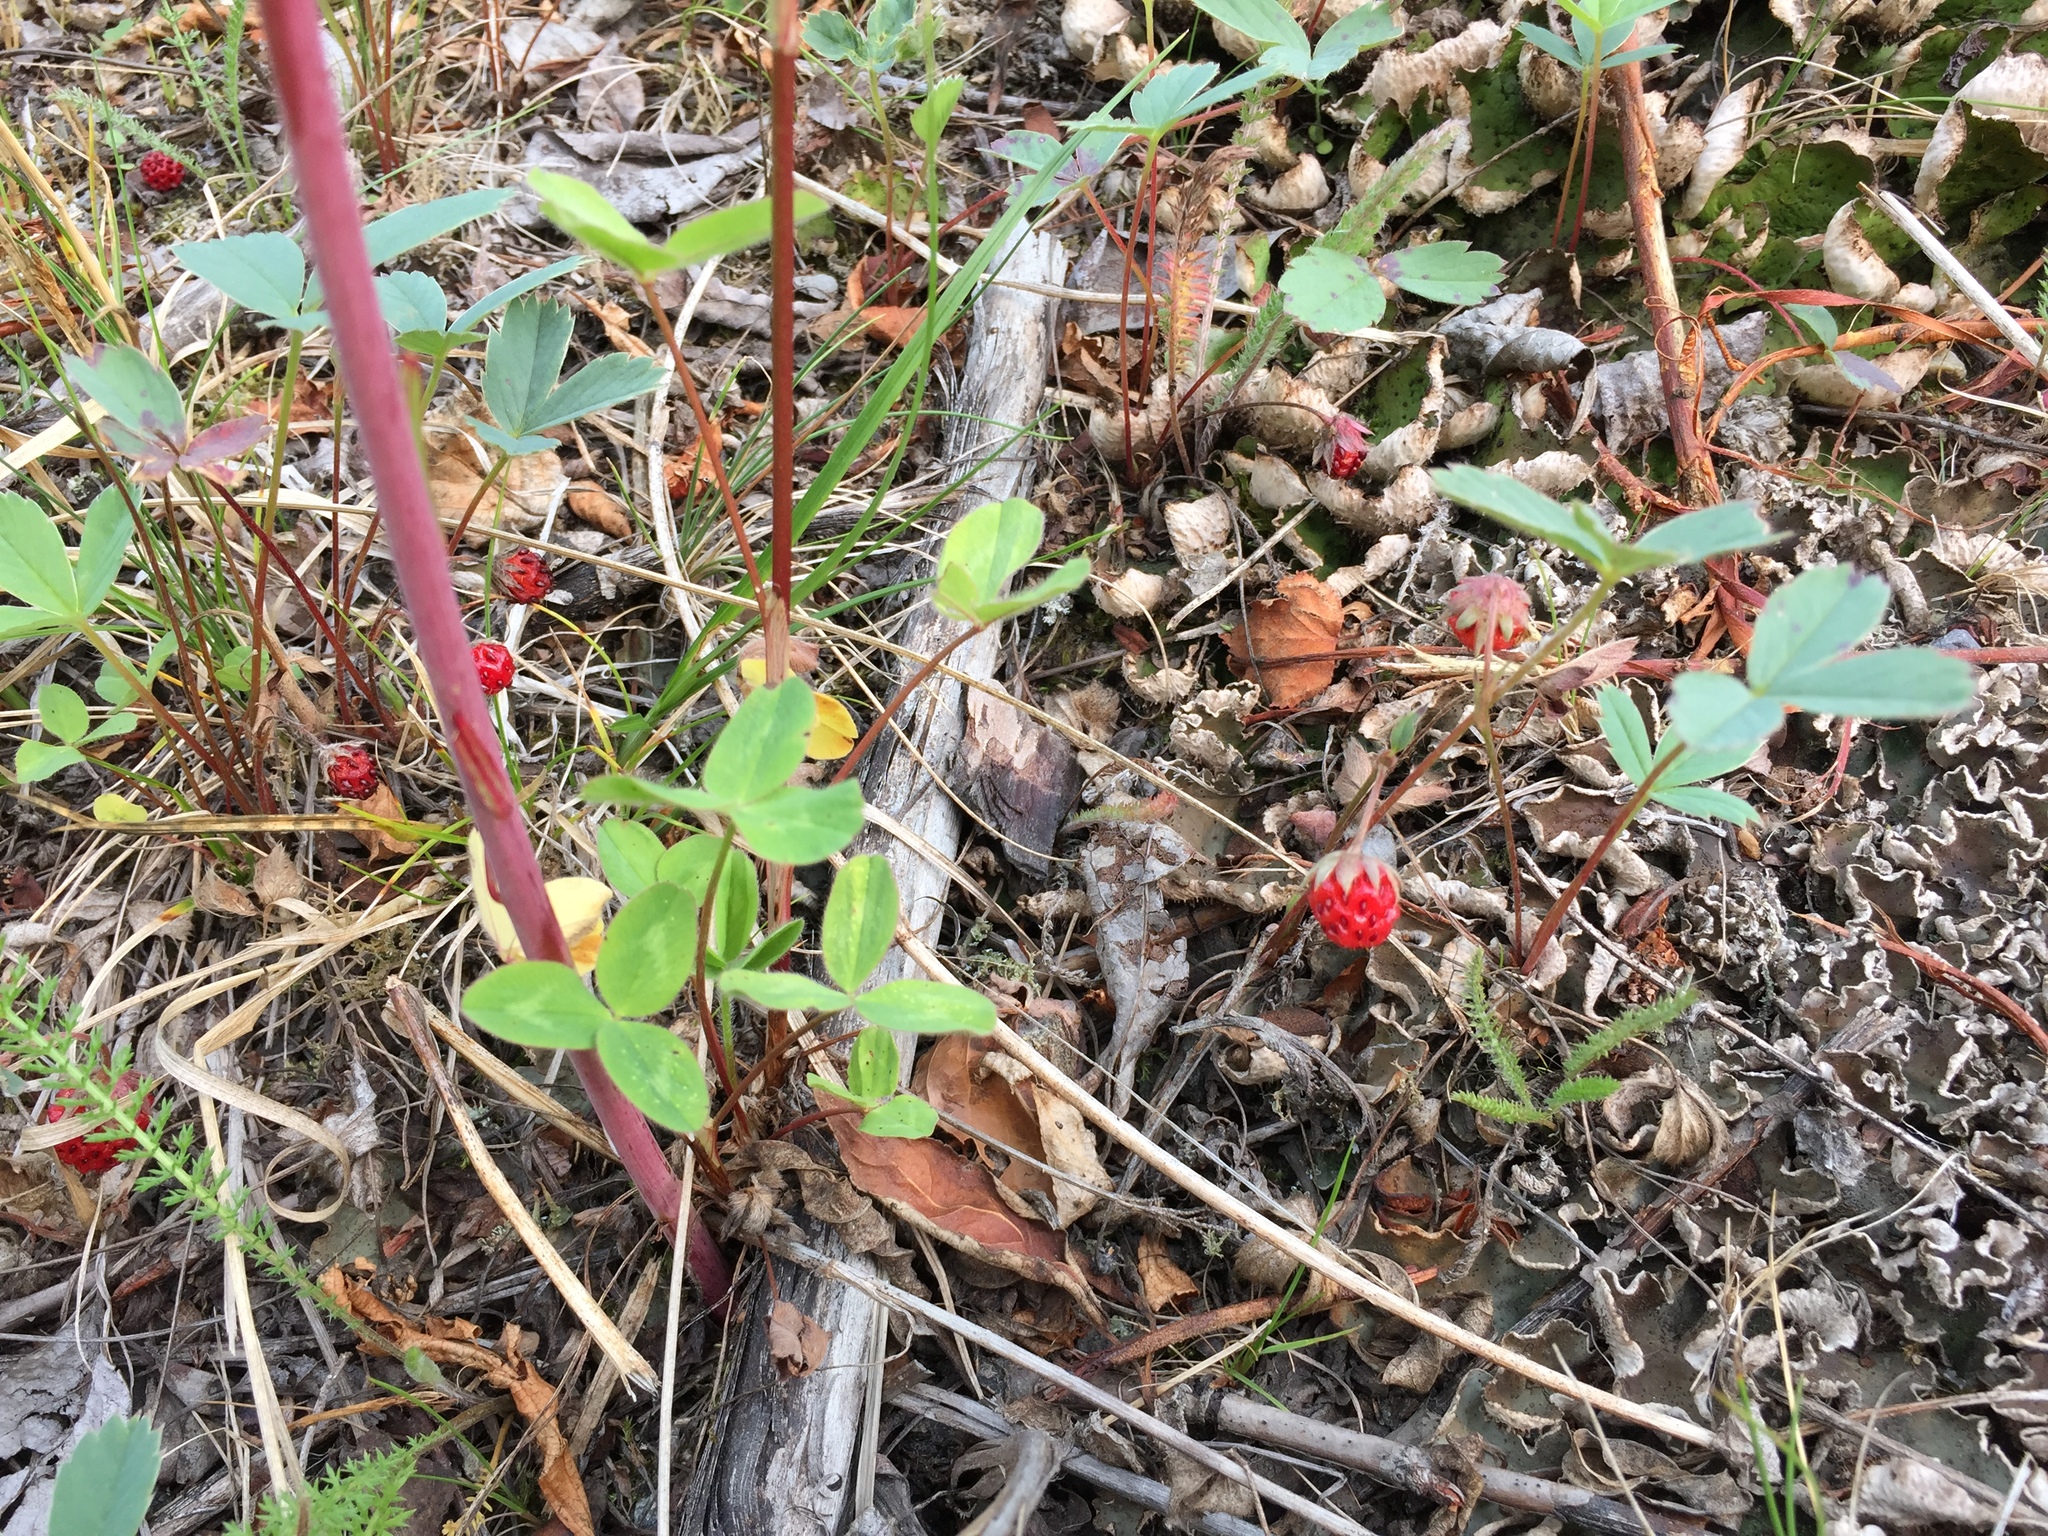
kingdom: Plantae
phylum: Tracheophyta
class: Magnoliopsida
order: Rosales
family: Rosaceae
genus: Fragaria
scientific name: Fragaria virginiana
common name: Thickleaved wild strawberry
